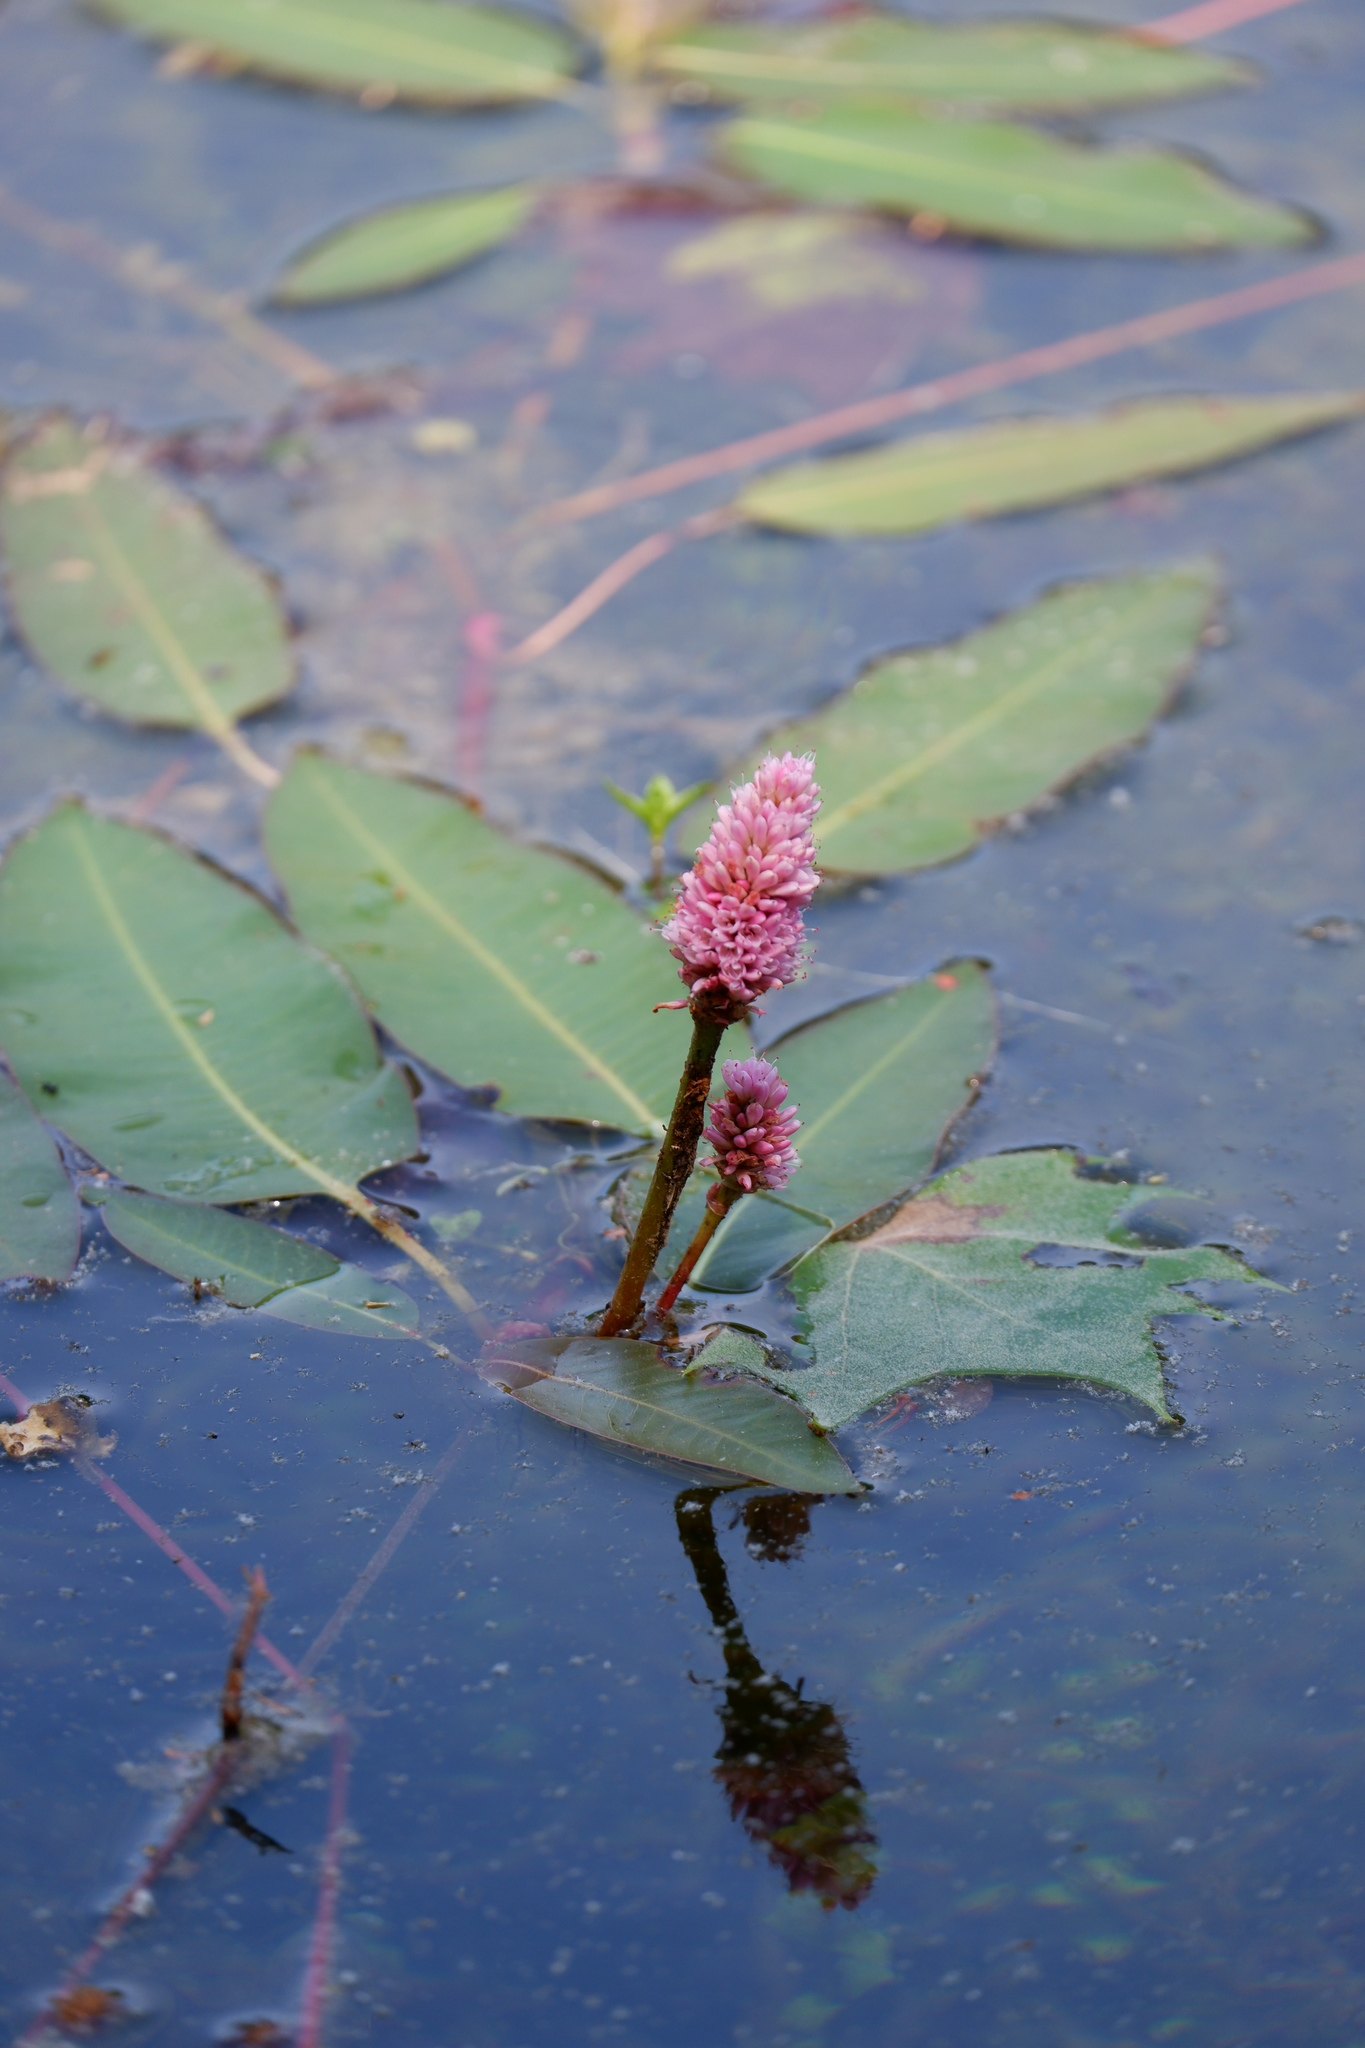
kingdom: Plantae
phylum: Tracheophyta
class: Magnoliopsida
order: Caryophyllales
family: Polygonaceae
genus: Persicaria
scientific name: Persicaria amphibia
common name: Amphibious bistort
